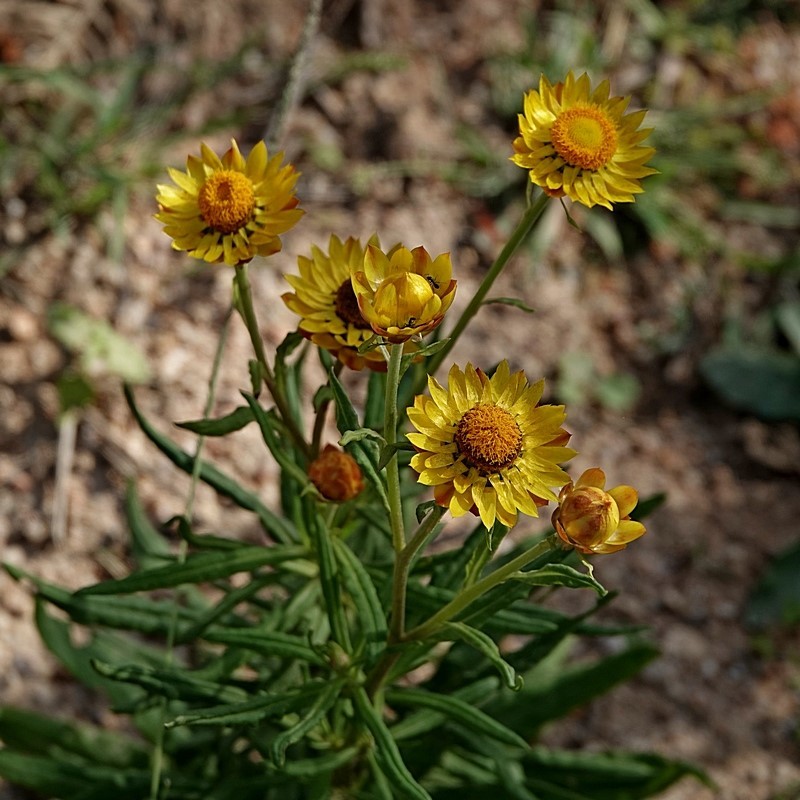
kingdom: Plantae
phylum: Tracheophyta
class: Magnoliopsida
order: Asterales
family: Asteraceae
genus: Xerochrysum
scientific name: Xerochrysum bracteatum
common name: Bracted strawflower
